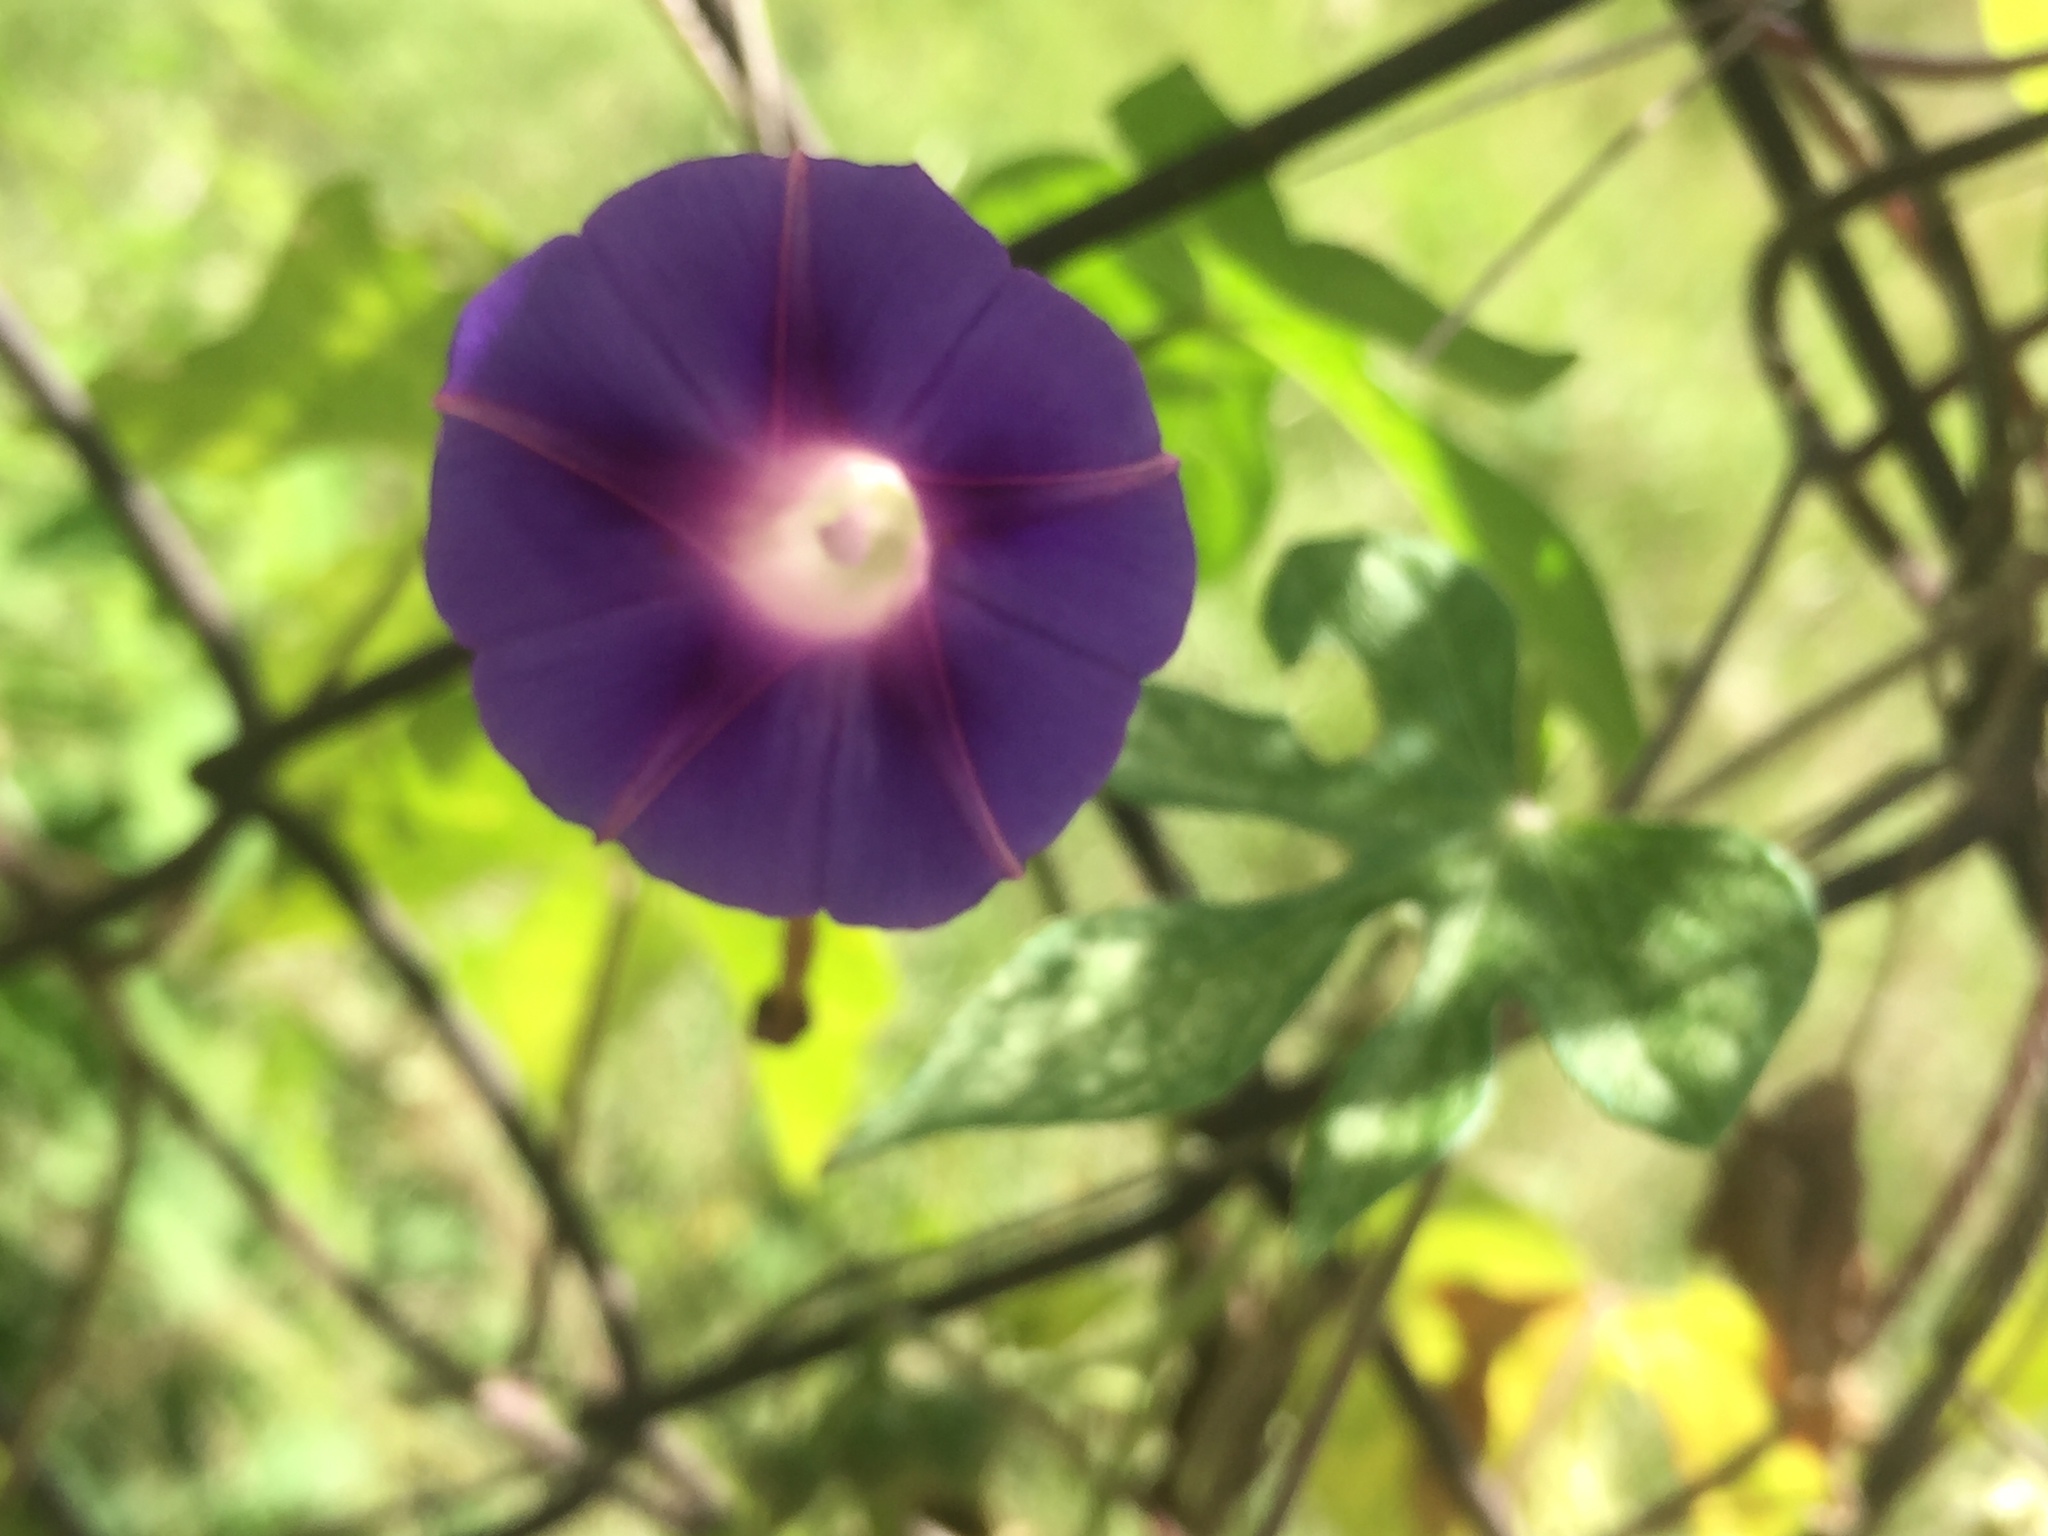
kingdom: Plantae
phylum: Tracheophyta
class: Magnoliopsida
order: Solanales
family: Convolvulaceae
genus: Ipomoea
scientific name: Ipomoea purpurea
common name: Common morning-glory
